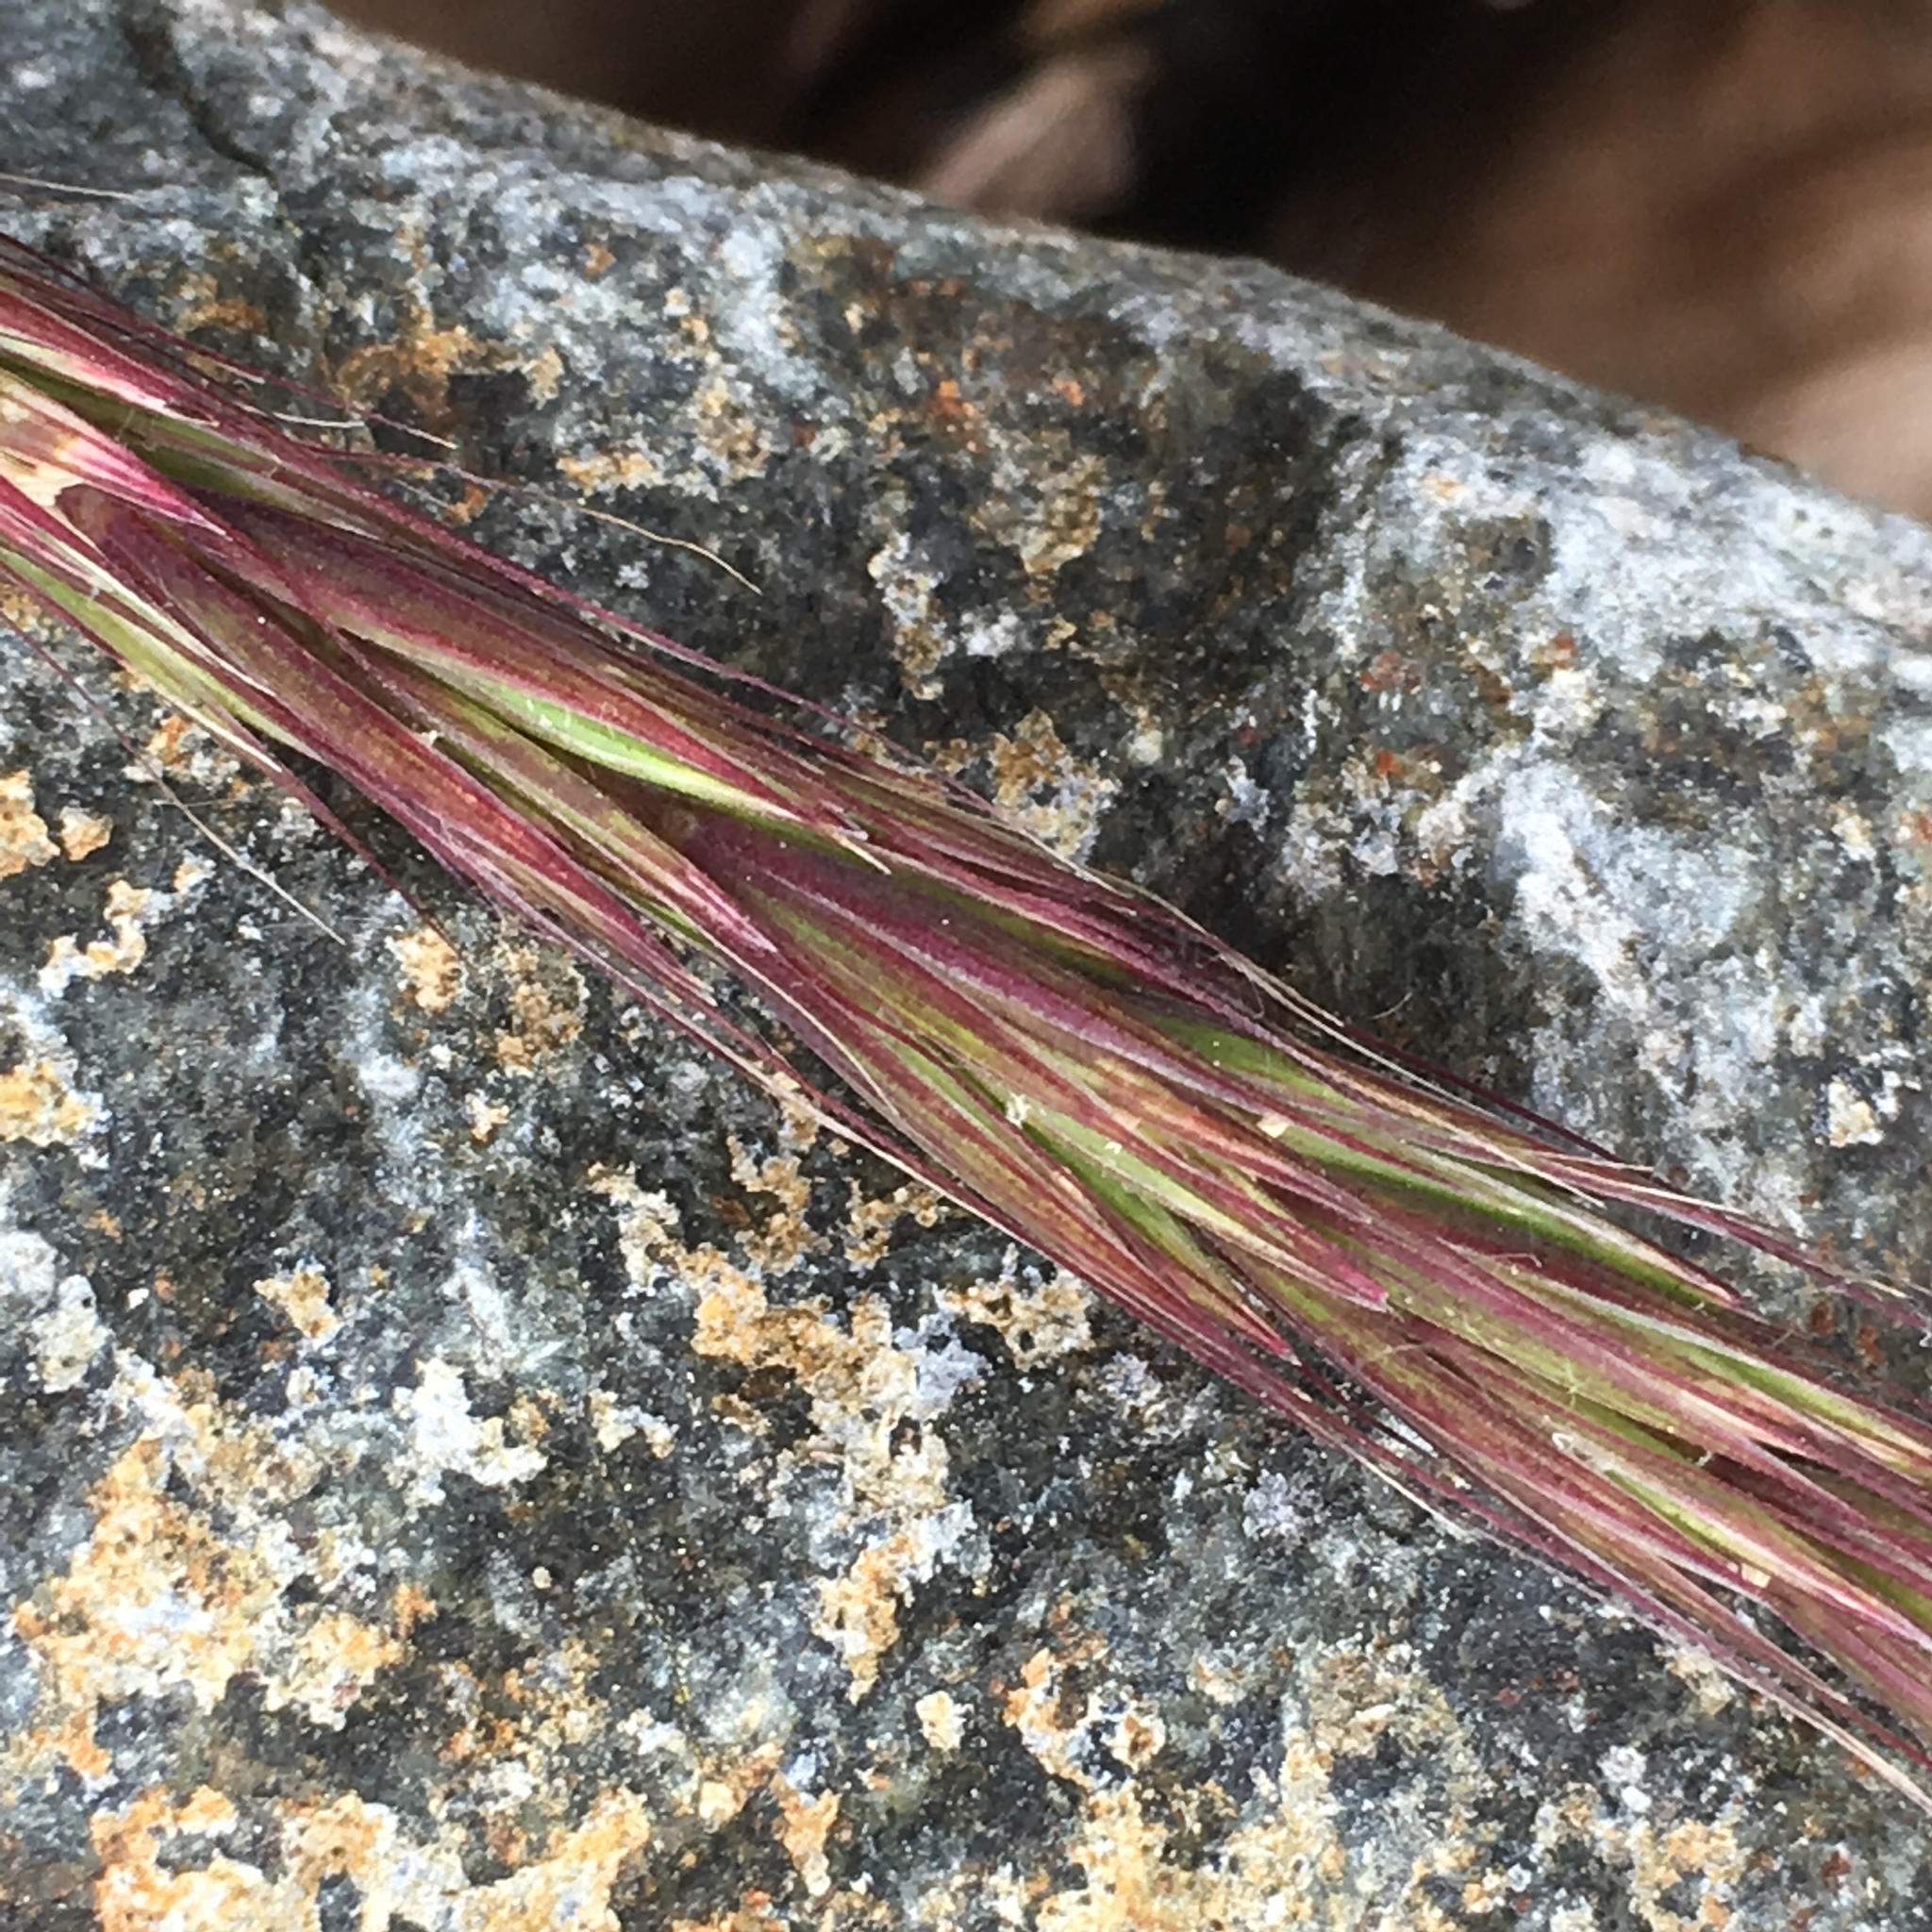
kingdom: Plantae
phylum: Tracheophyta
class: Liliopsida
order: Poales
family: Poaceae
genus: Elymus
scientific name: Elymus glaucus
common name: Blue wild rye
